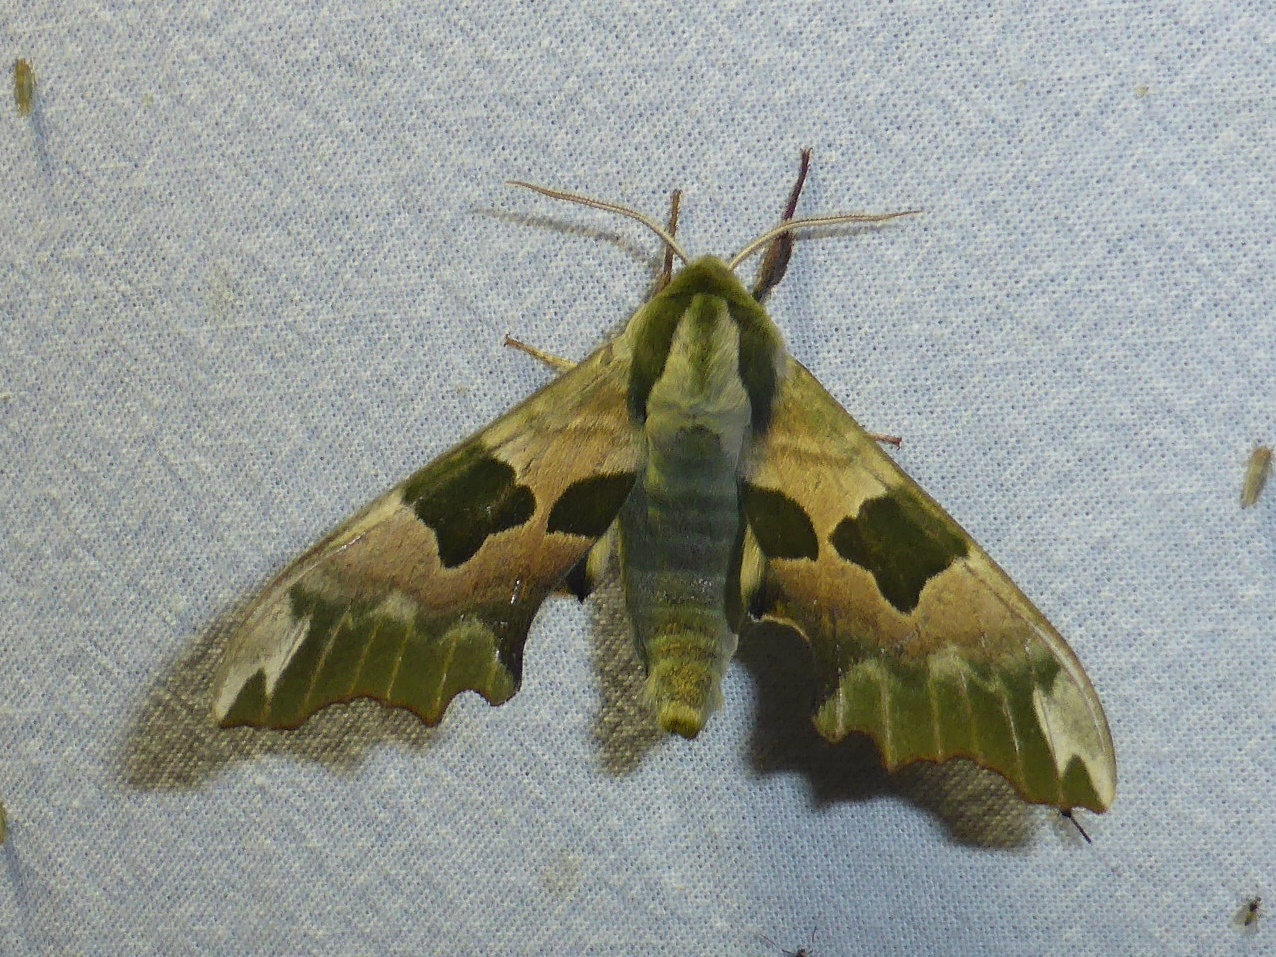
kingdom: Animalia
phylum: Arthropoda
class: Insecta
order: Lepidoptera
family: Sphingidae
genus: Mimas
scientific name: Mimas tiliae
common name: Lime hawk-moth
